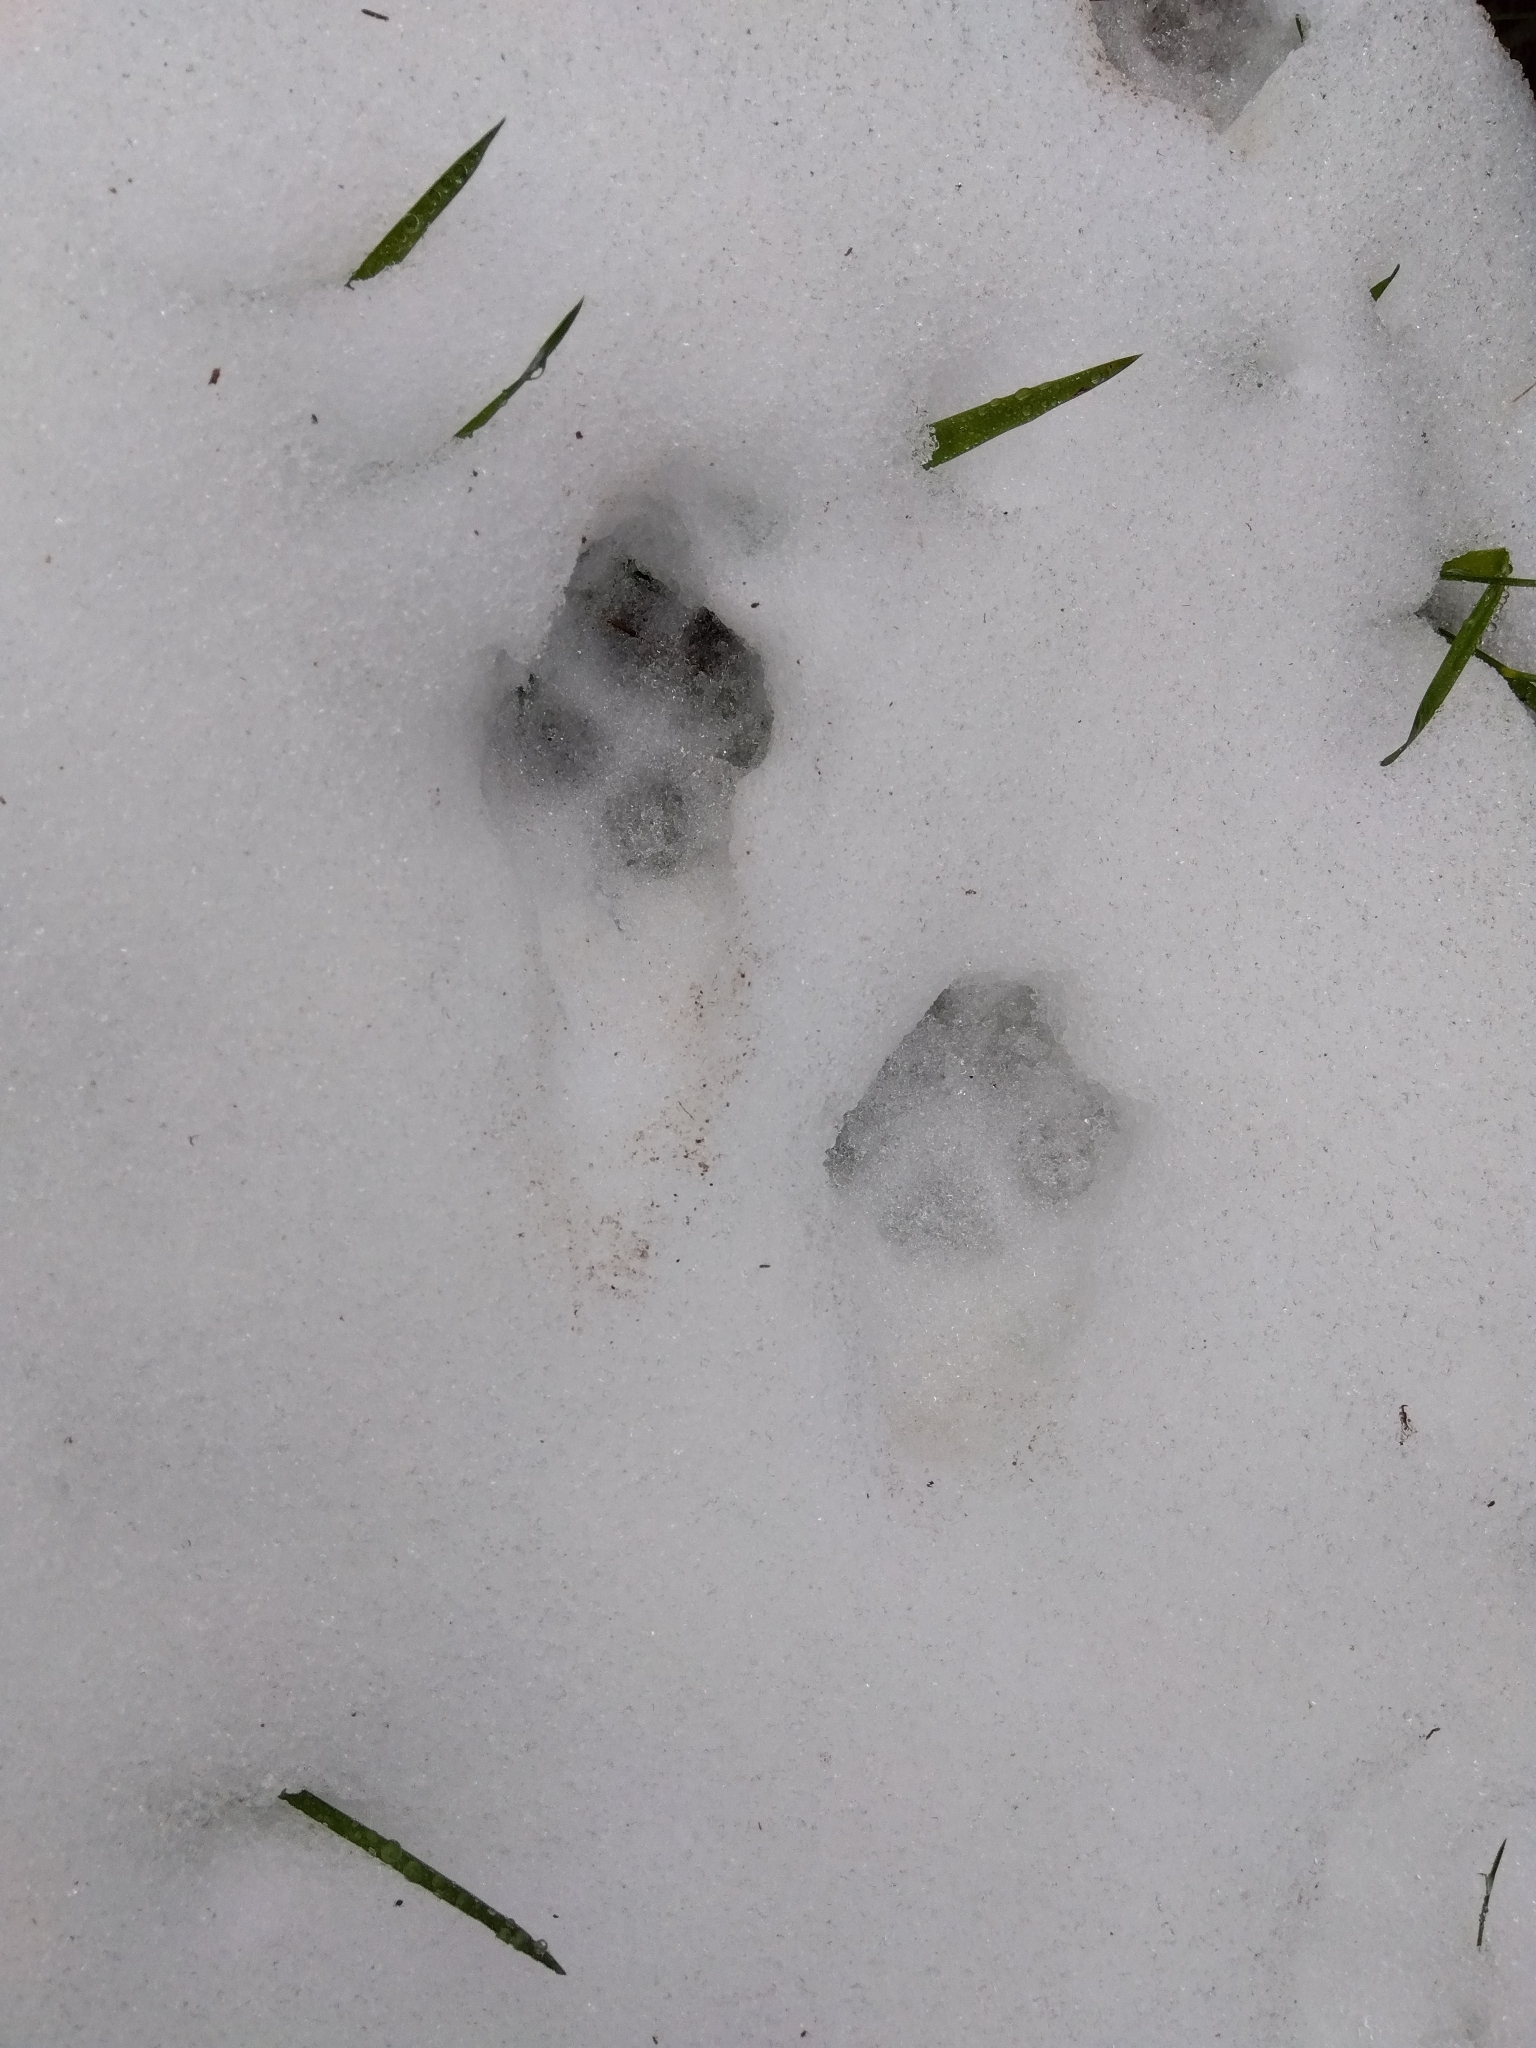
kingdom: Animalia
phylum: Chordata
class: Mammalia
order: Carnivora
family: Canidae
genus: Vulpes
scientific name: Vulpes vulpes
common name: Red fox
